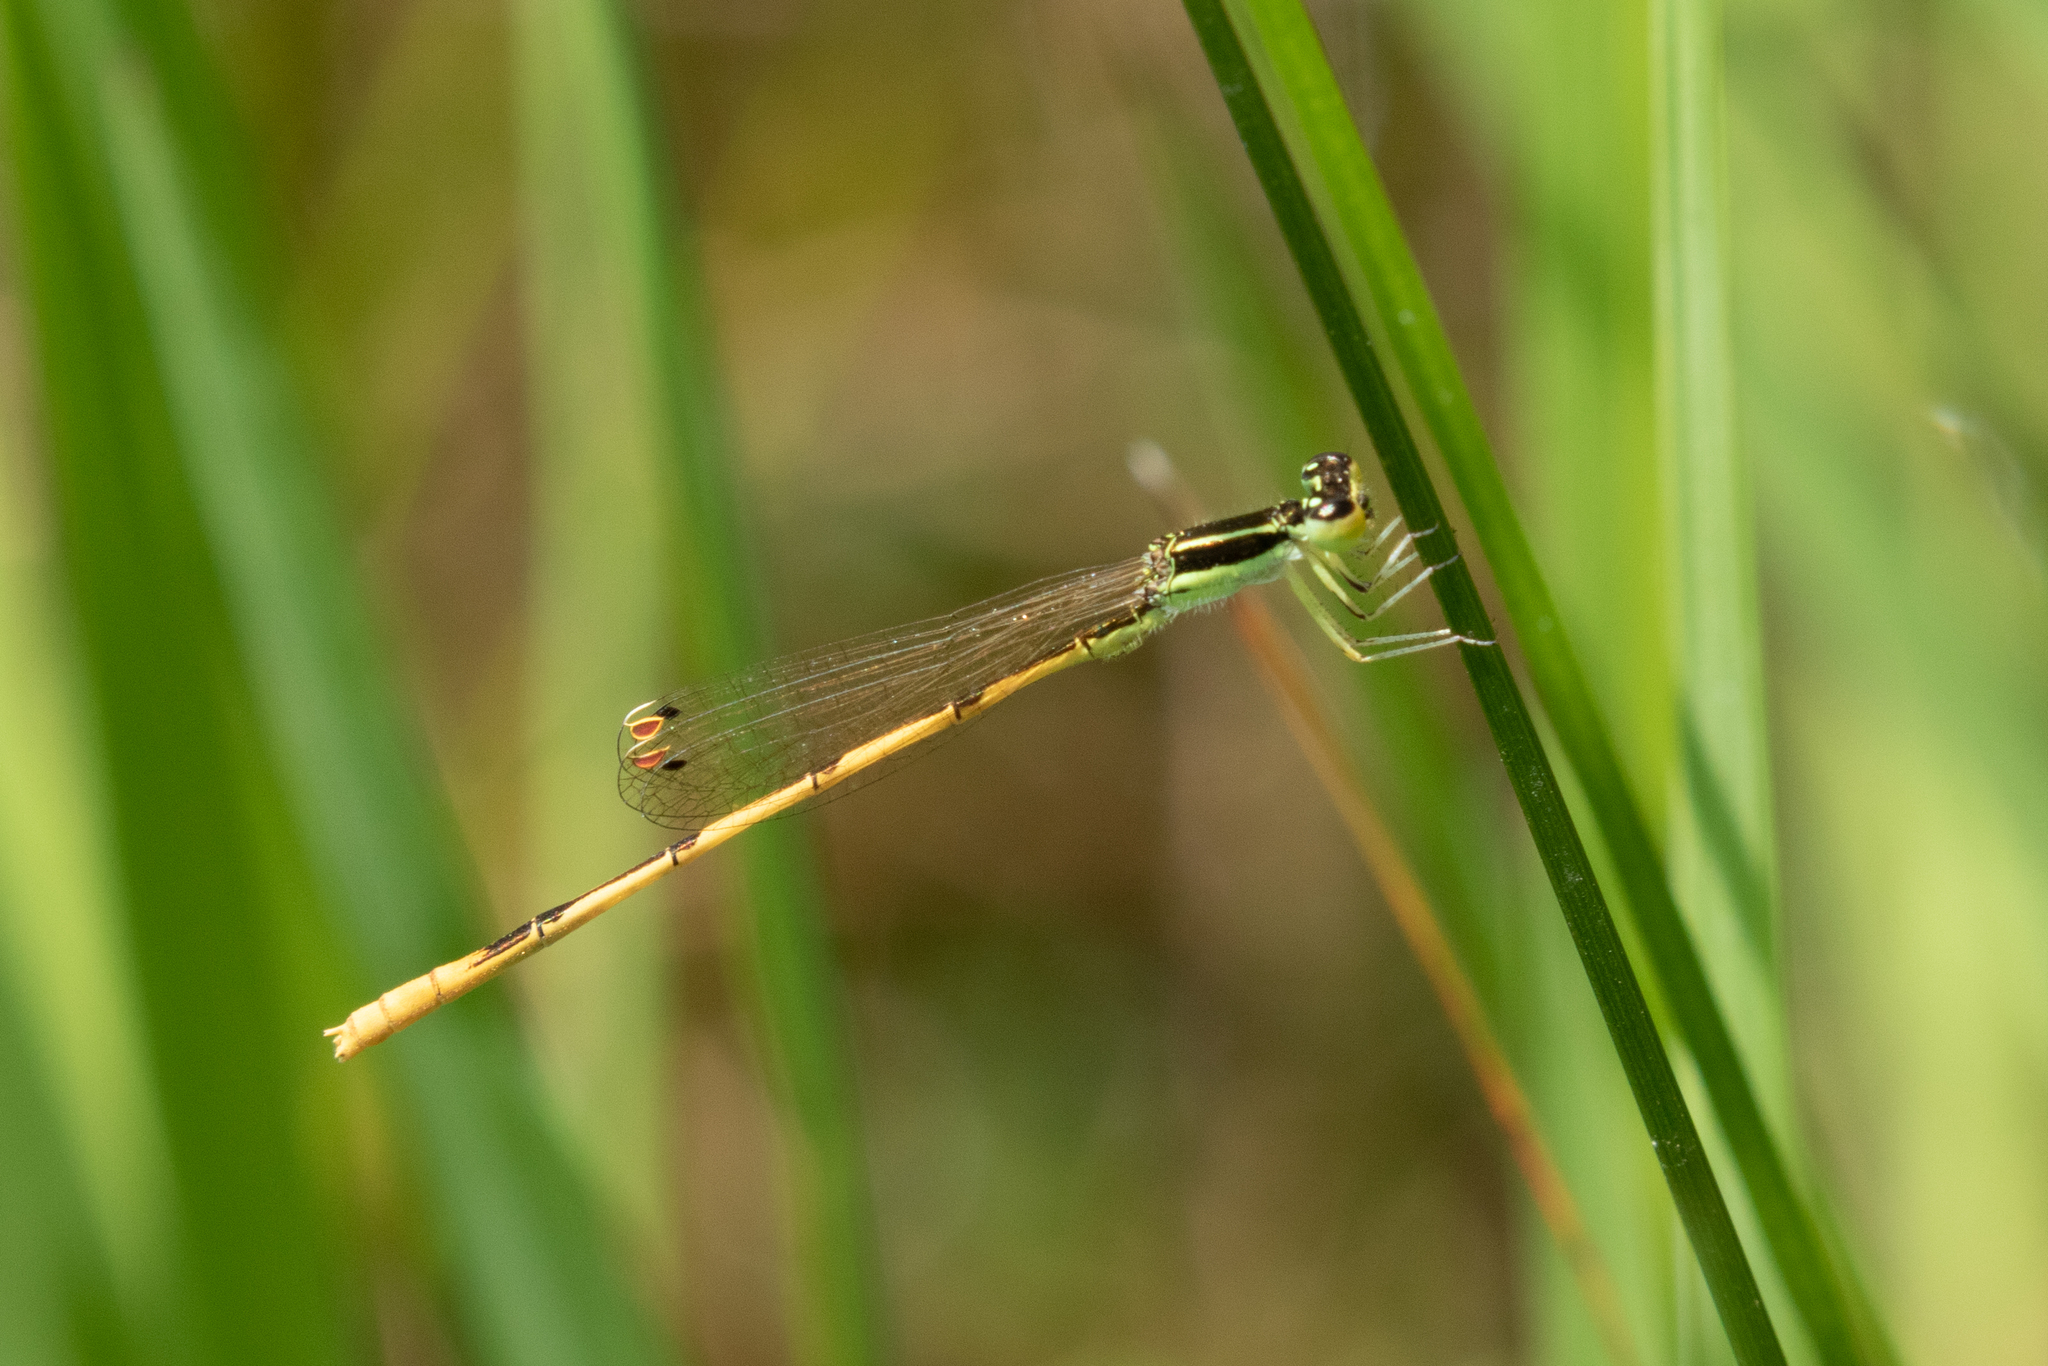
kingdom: Animalia
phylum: Arthropoda
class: Insecta
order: Odonata
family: Coenagrionidae
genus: Ischnura
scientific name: Ischnura hastata
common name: Citrine forktail
